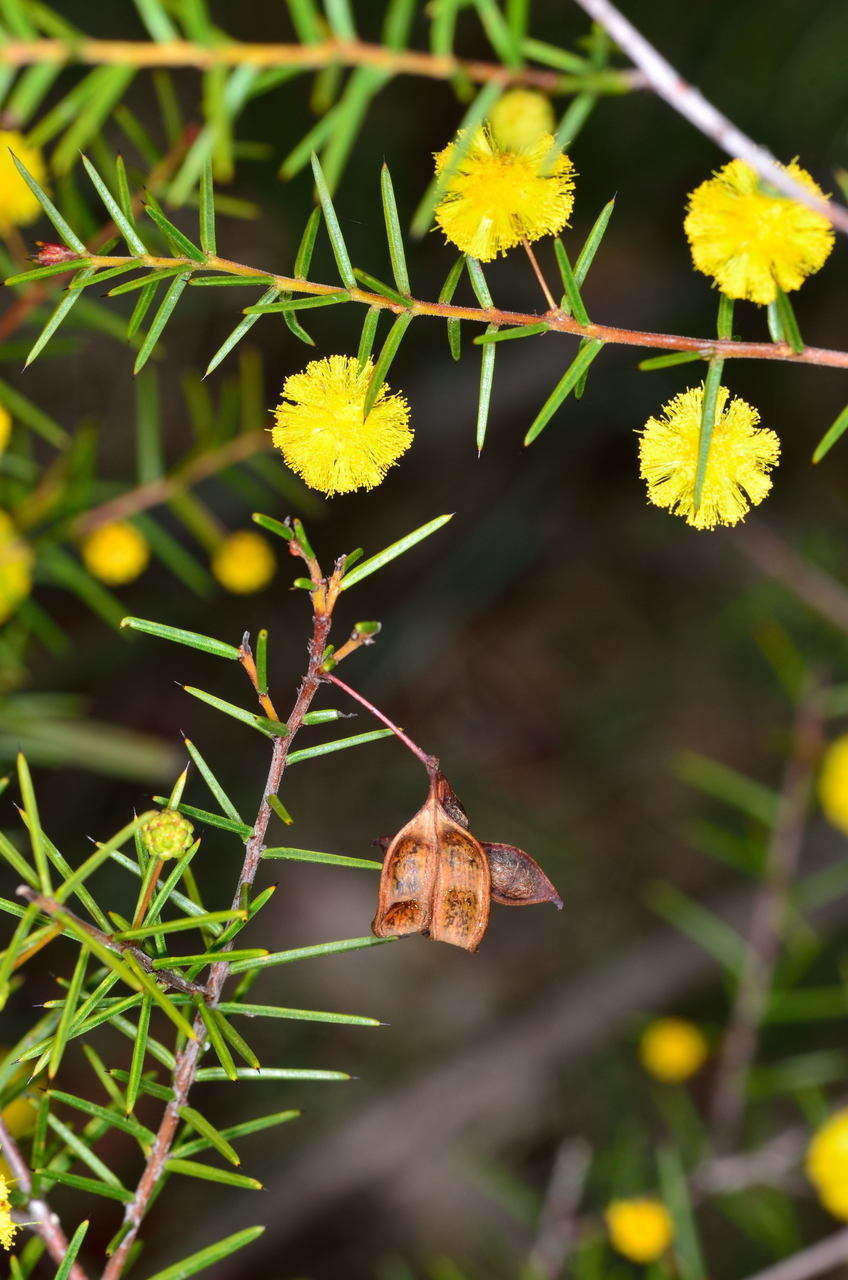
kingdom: Plantae
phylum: Tracheophyta
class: Magnoliopsida
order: Fabales
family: Fabaceae
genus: Acacia
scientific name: Acacia brownii
